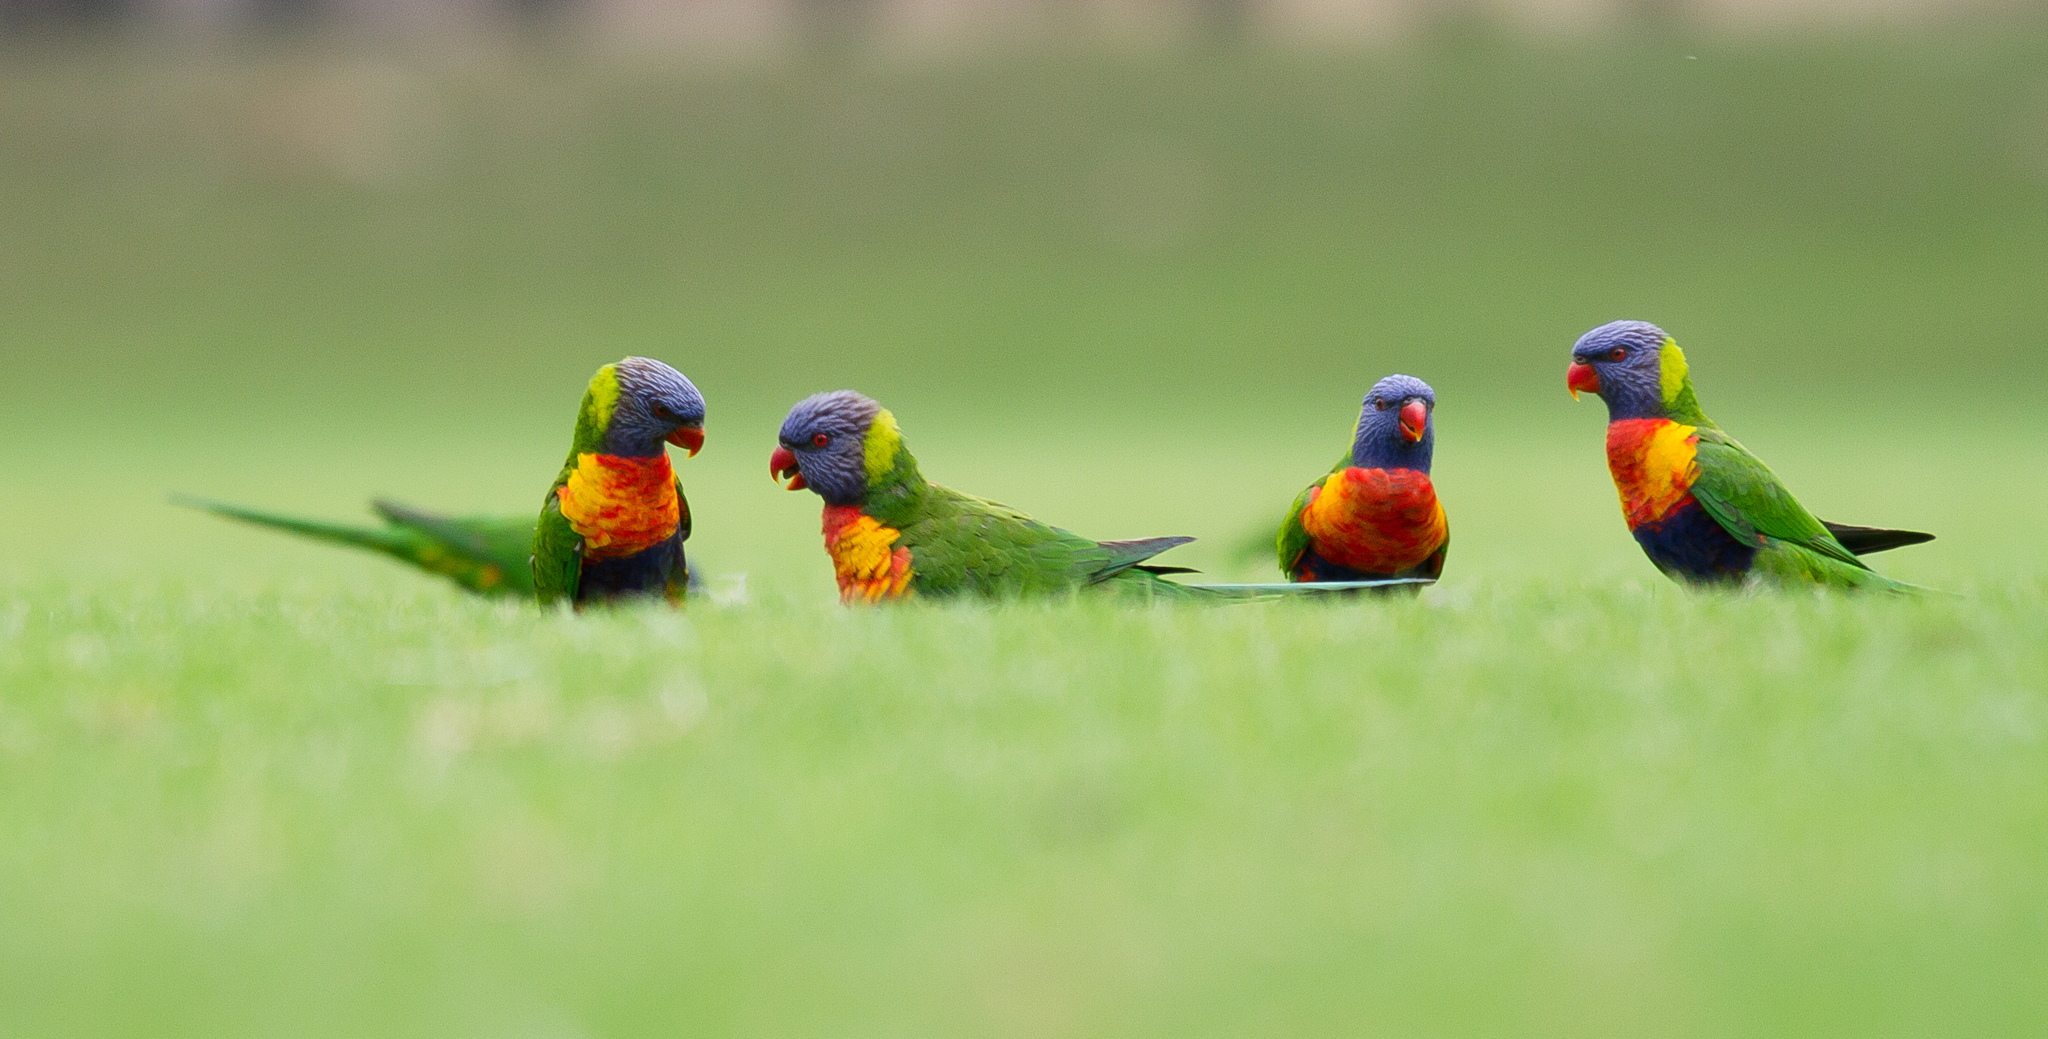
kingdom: Animalia
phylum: Chordata
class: Aves
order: Psittaciformes
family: Psittacidae
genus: Trichoglossus
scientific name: Trichoglossus haematodus
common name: Coconut lorikeet
